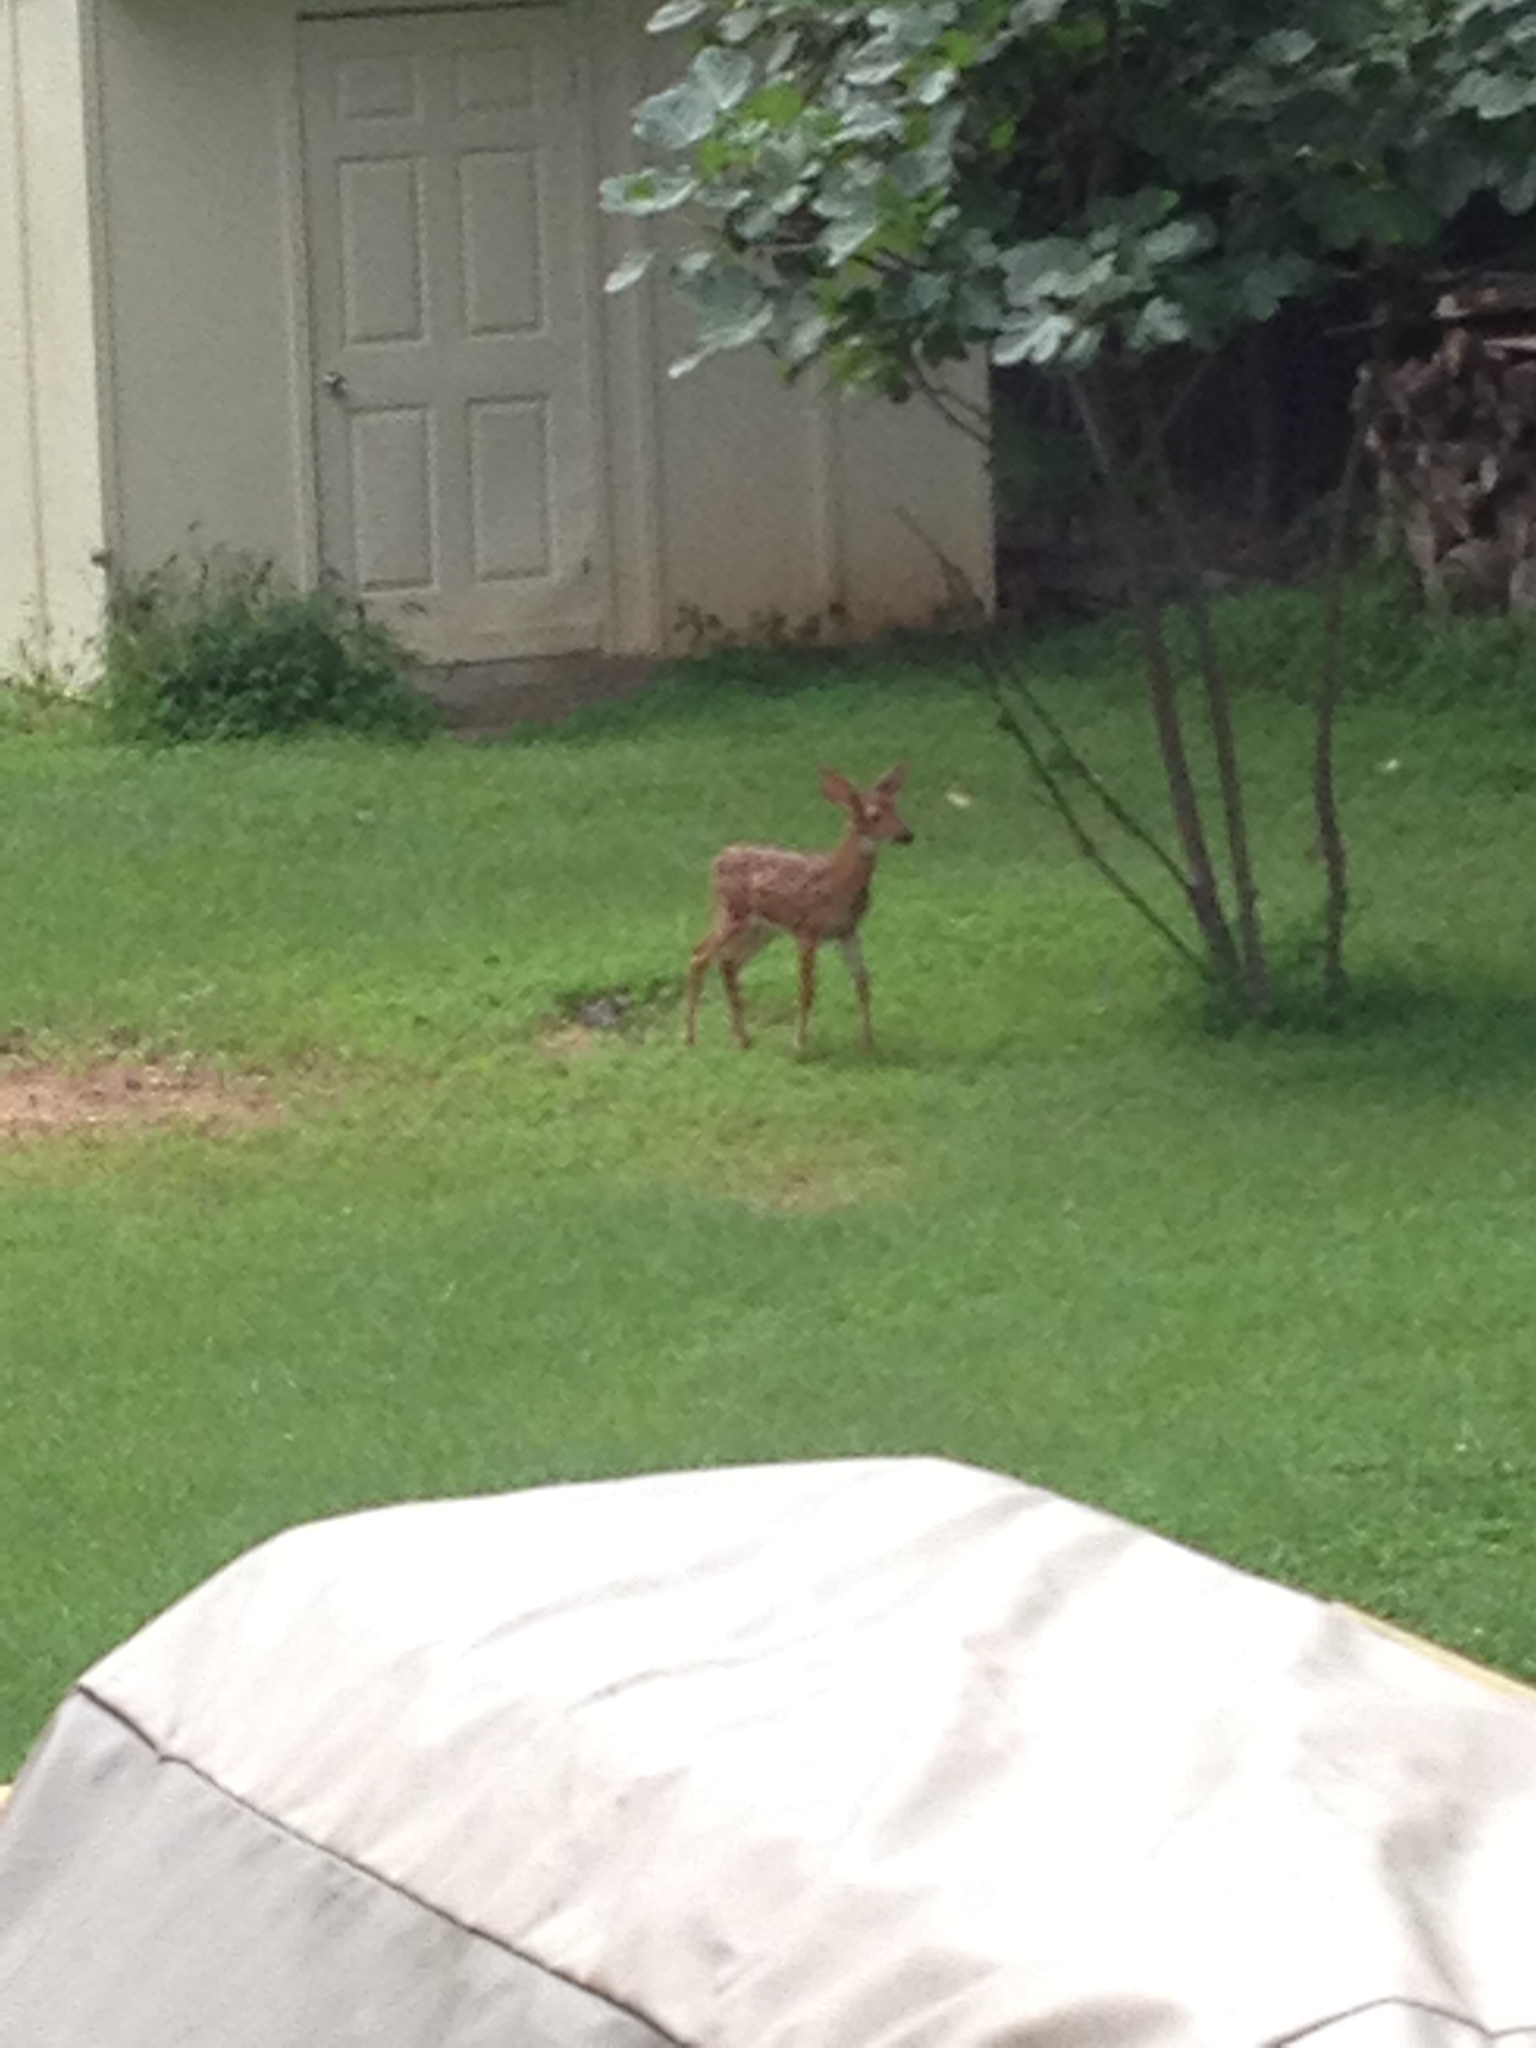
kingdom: Animalia
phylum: Chordata
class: Mammalia
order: Artiodactyla
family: Cervidae
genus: Odocoileus
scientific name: Odocoileus virginianus
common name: White-tailed deer
